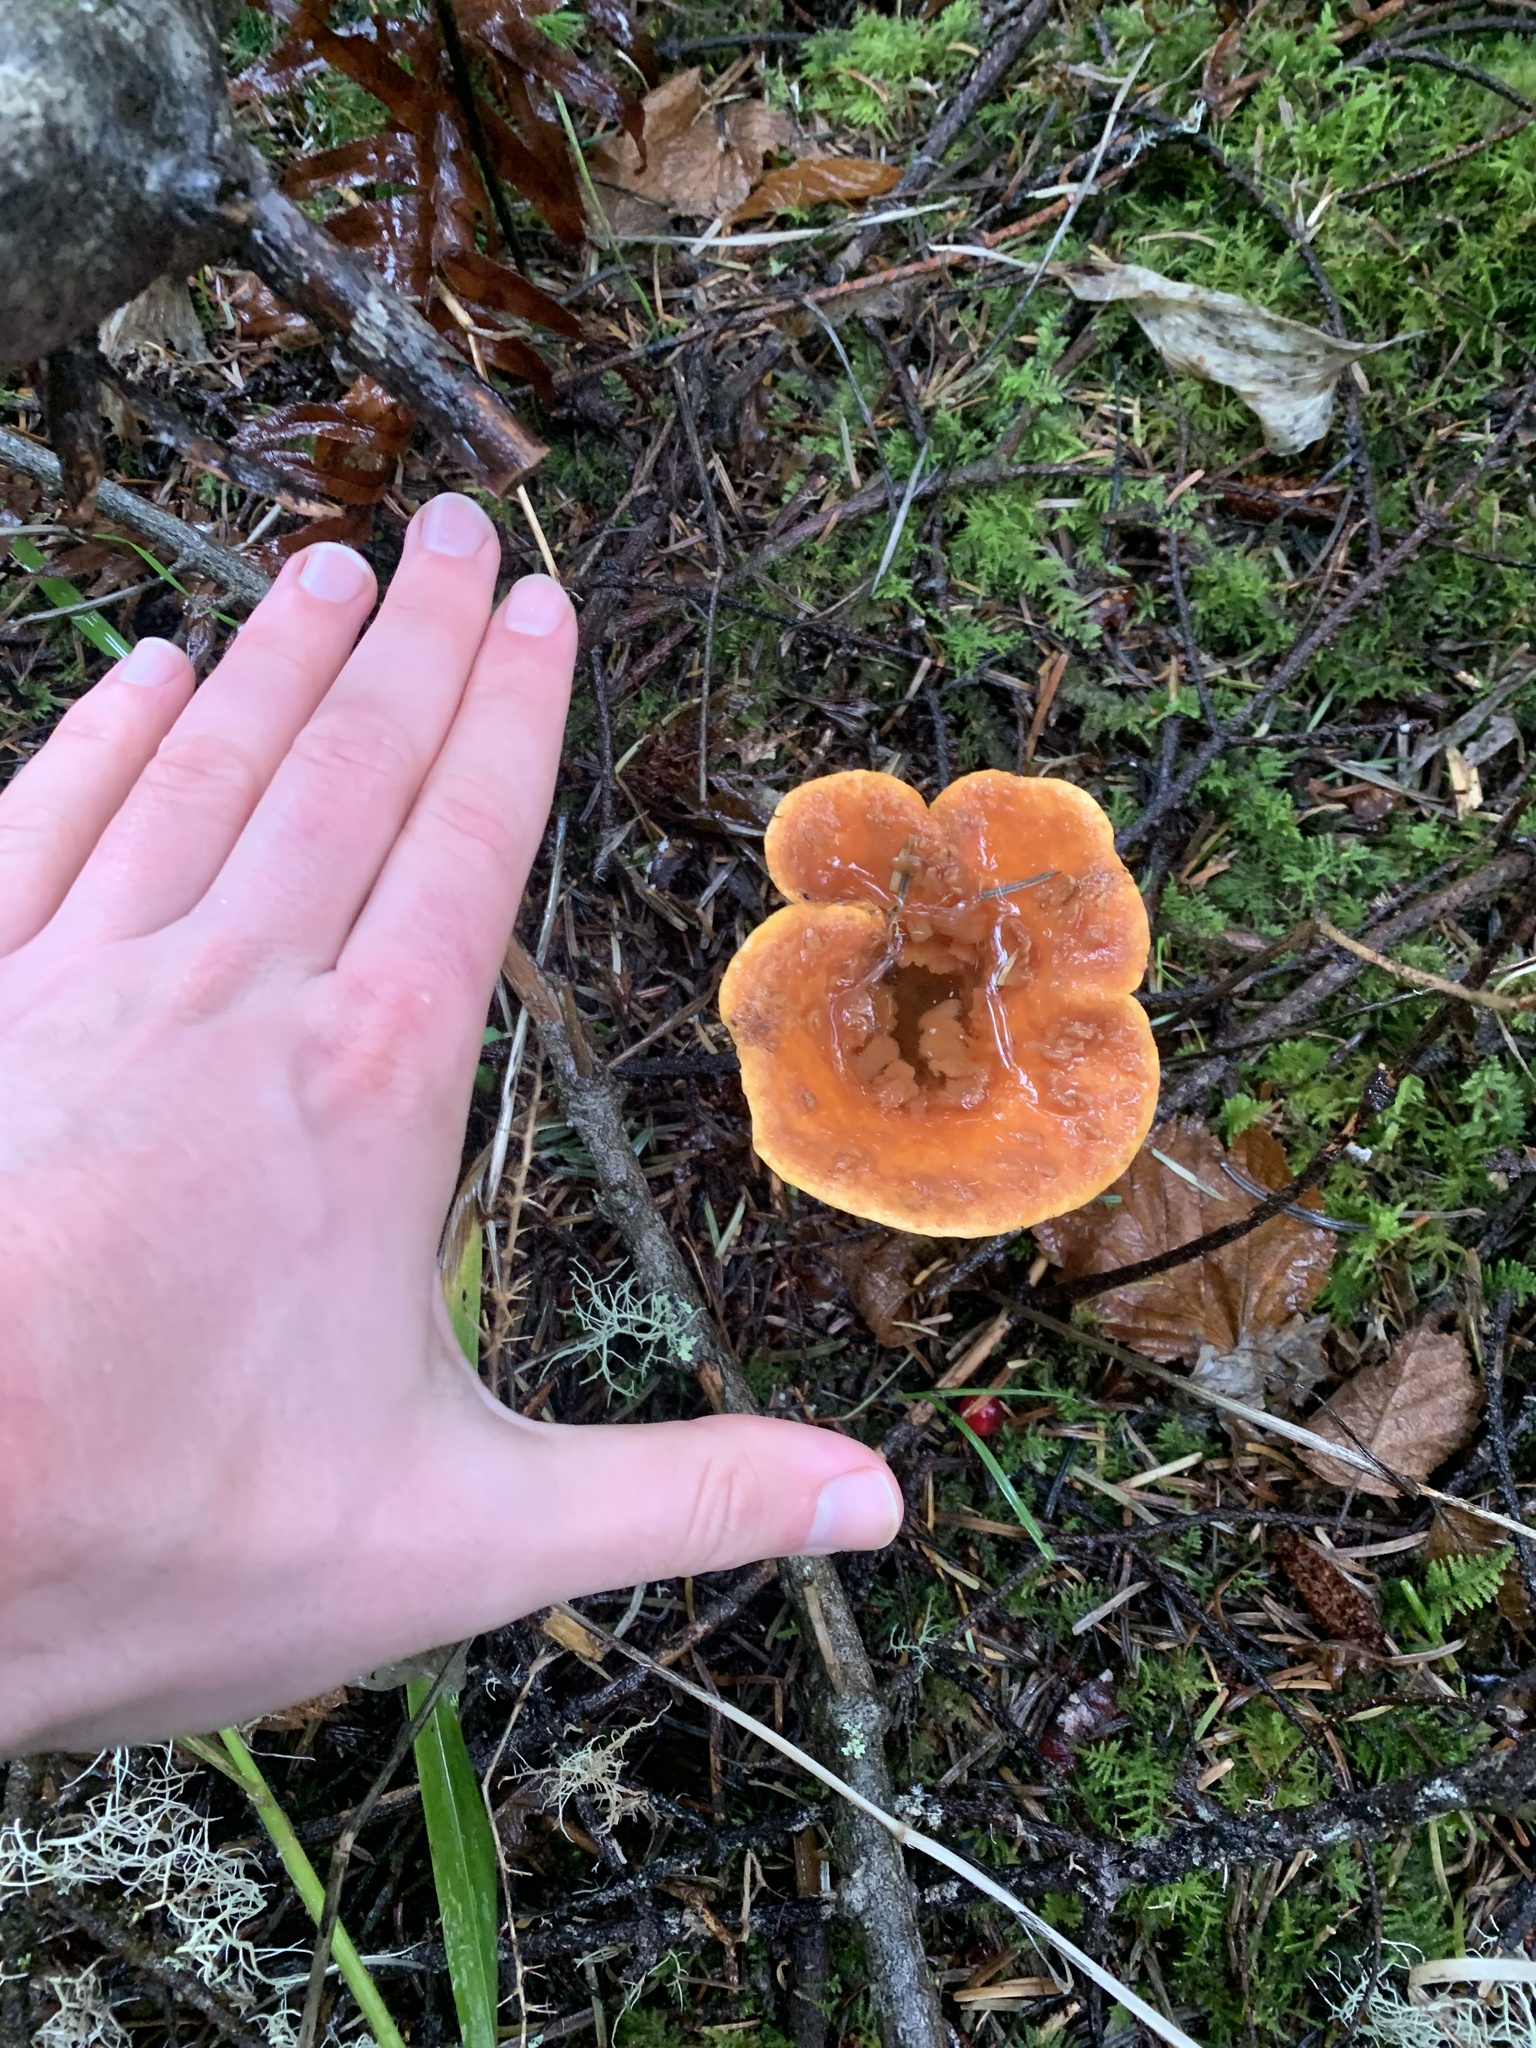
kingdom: Fungi
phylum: Basidiomycota
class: Agaricomycetes
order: Gomphales
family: Gomphaceae
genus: Turbinellus
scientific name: Turbinellus floccosus
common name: Scaly chanterelle
